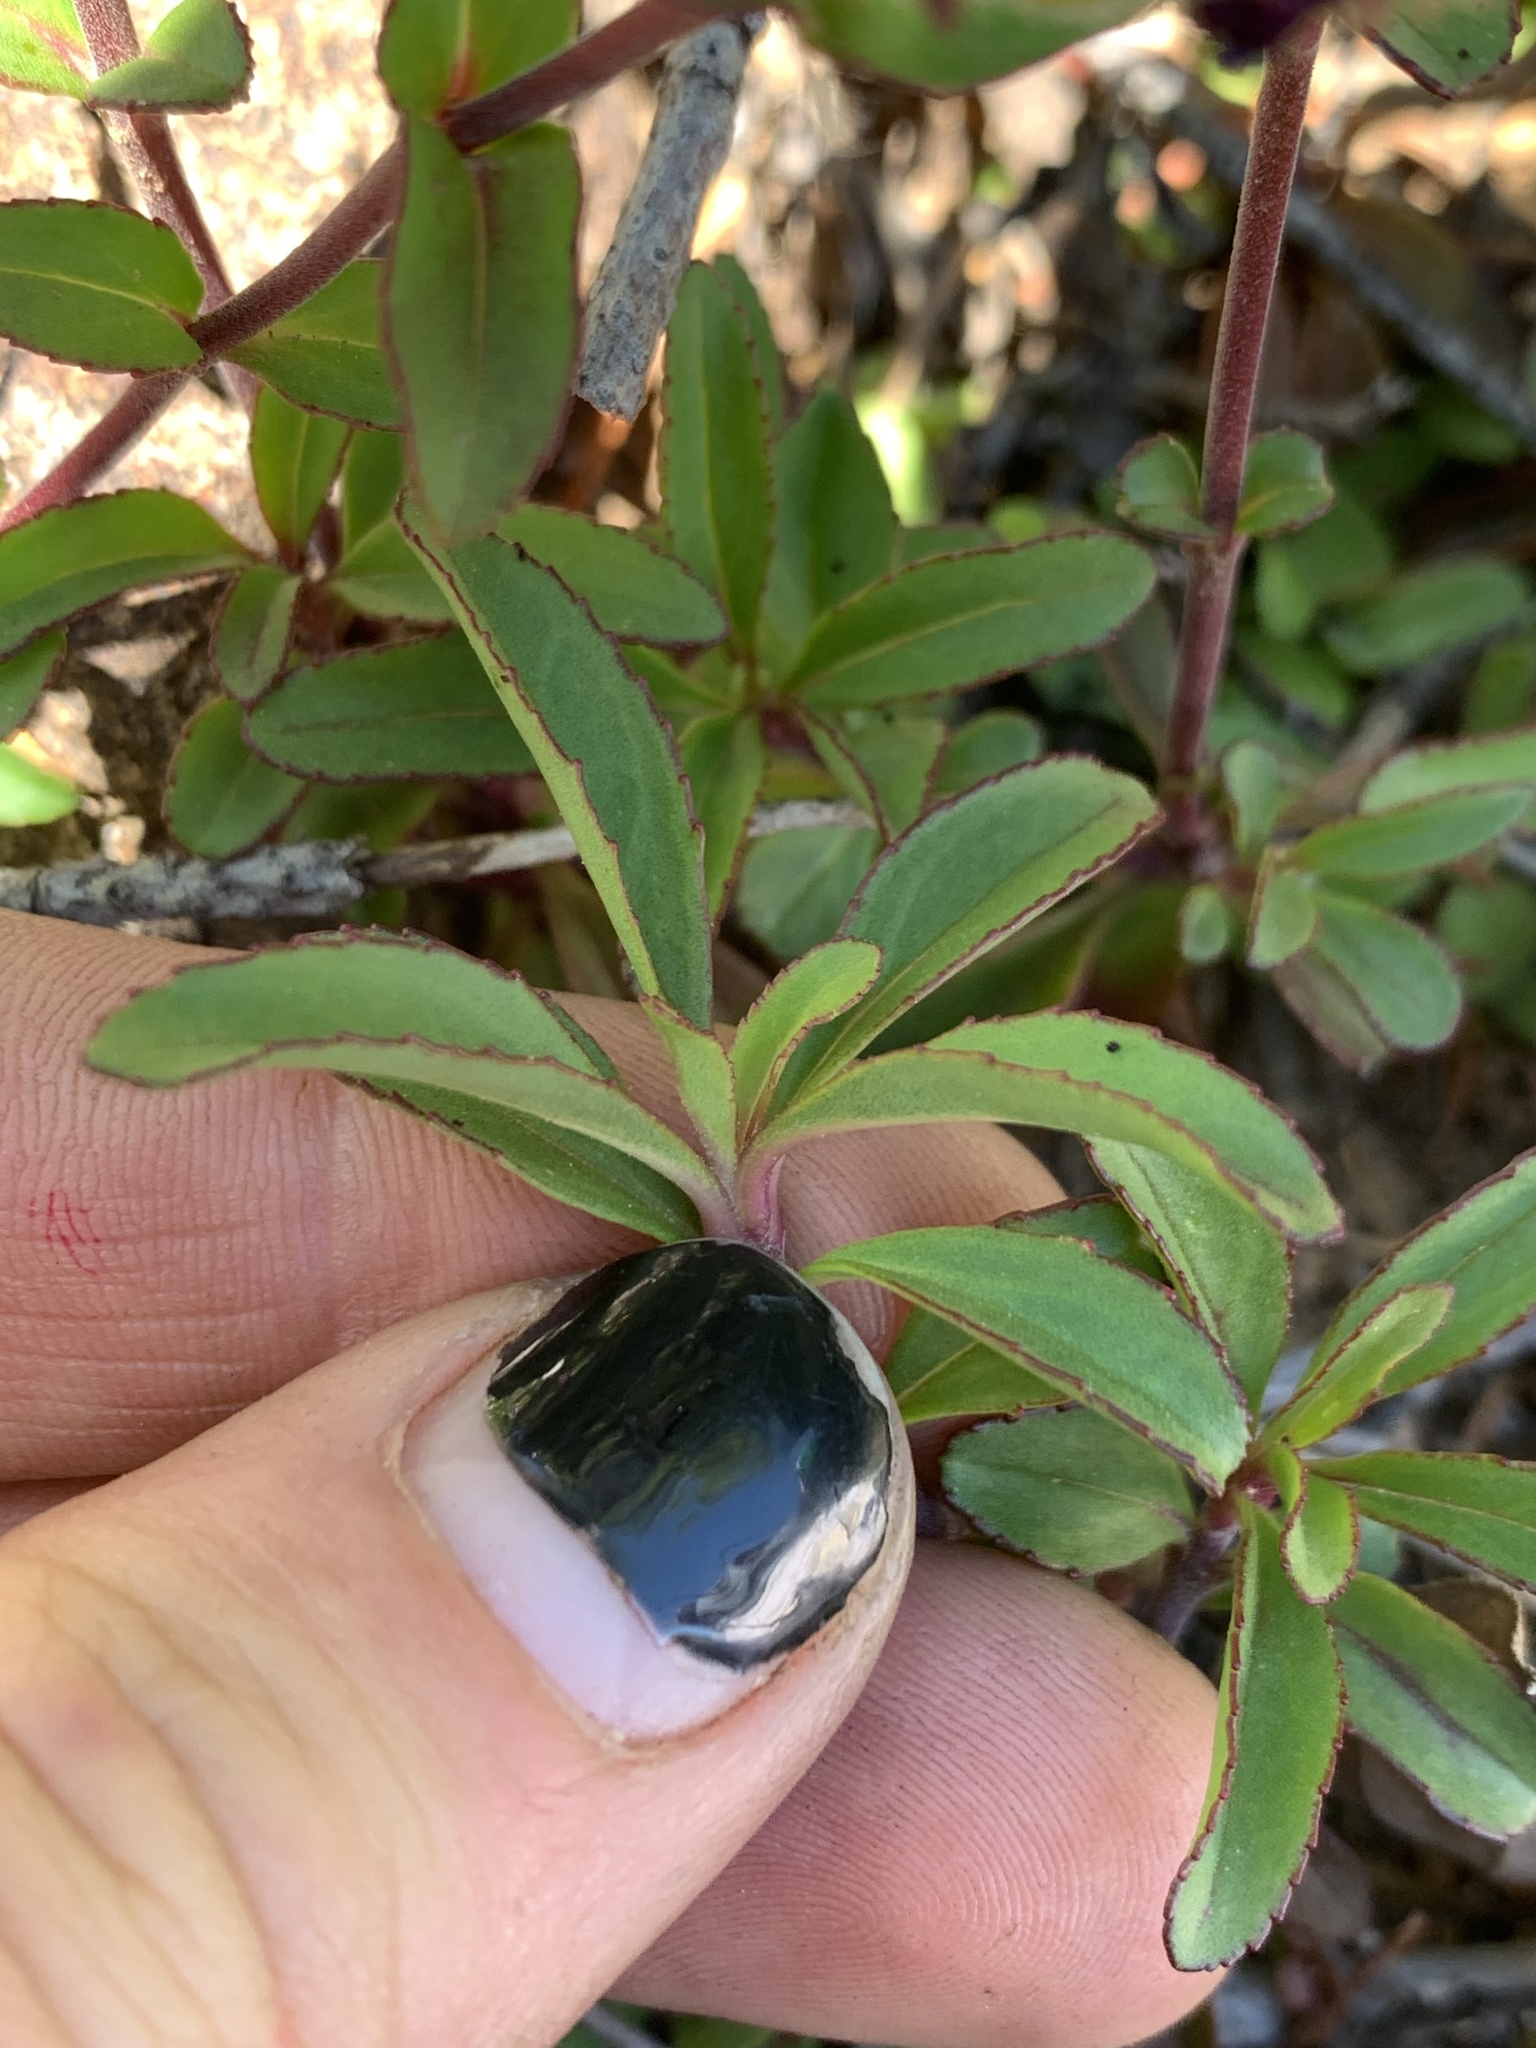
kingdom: Plantae
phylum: Tracheophyta
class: Magnoliopsida
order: Lamiales
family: Plantaginaceae
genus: Penstemon
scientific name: Penstemon cardwellii
